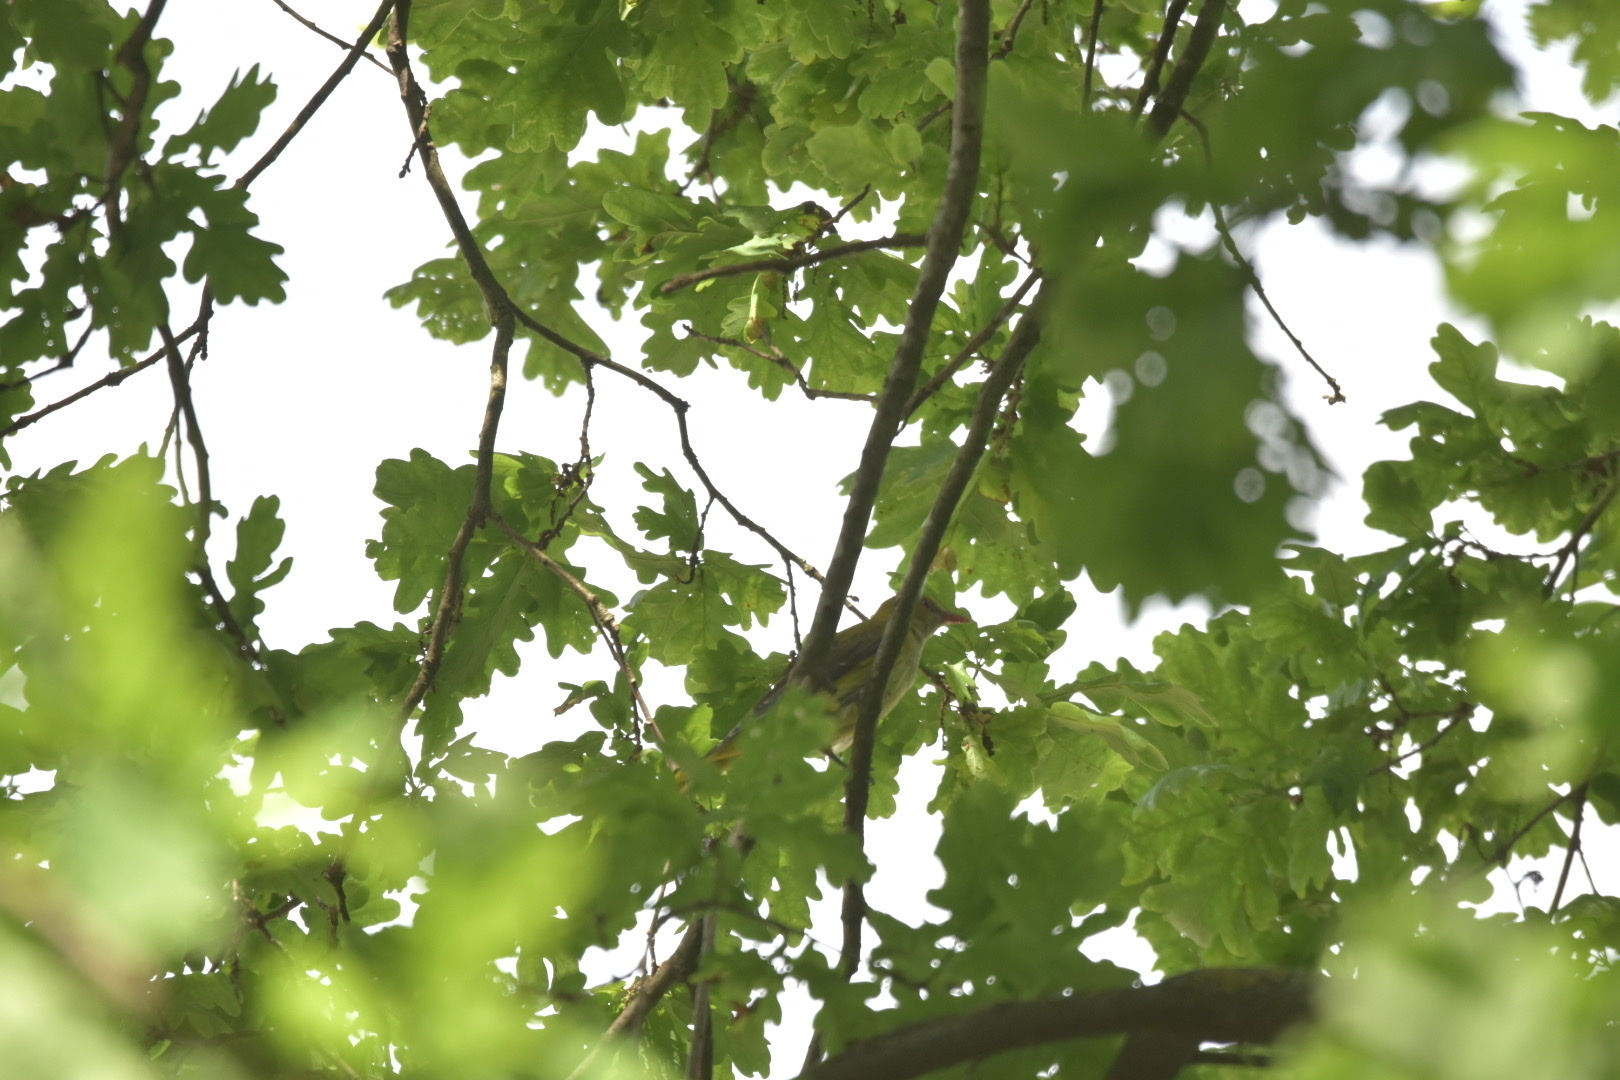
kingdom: Animalia
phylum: Chordata
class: Aves
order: Passeriformes
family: Oriolidae
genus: Oriolus
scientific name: Oriolus oriolus
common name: Eurasian golden oriole
